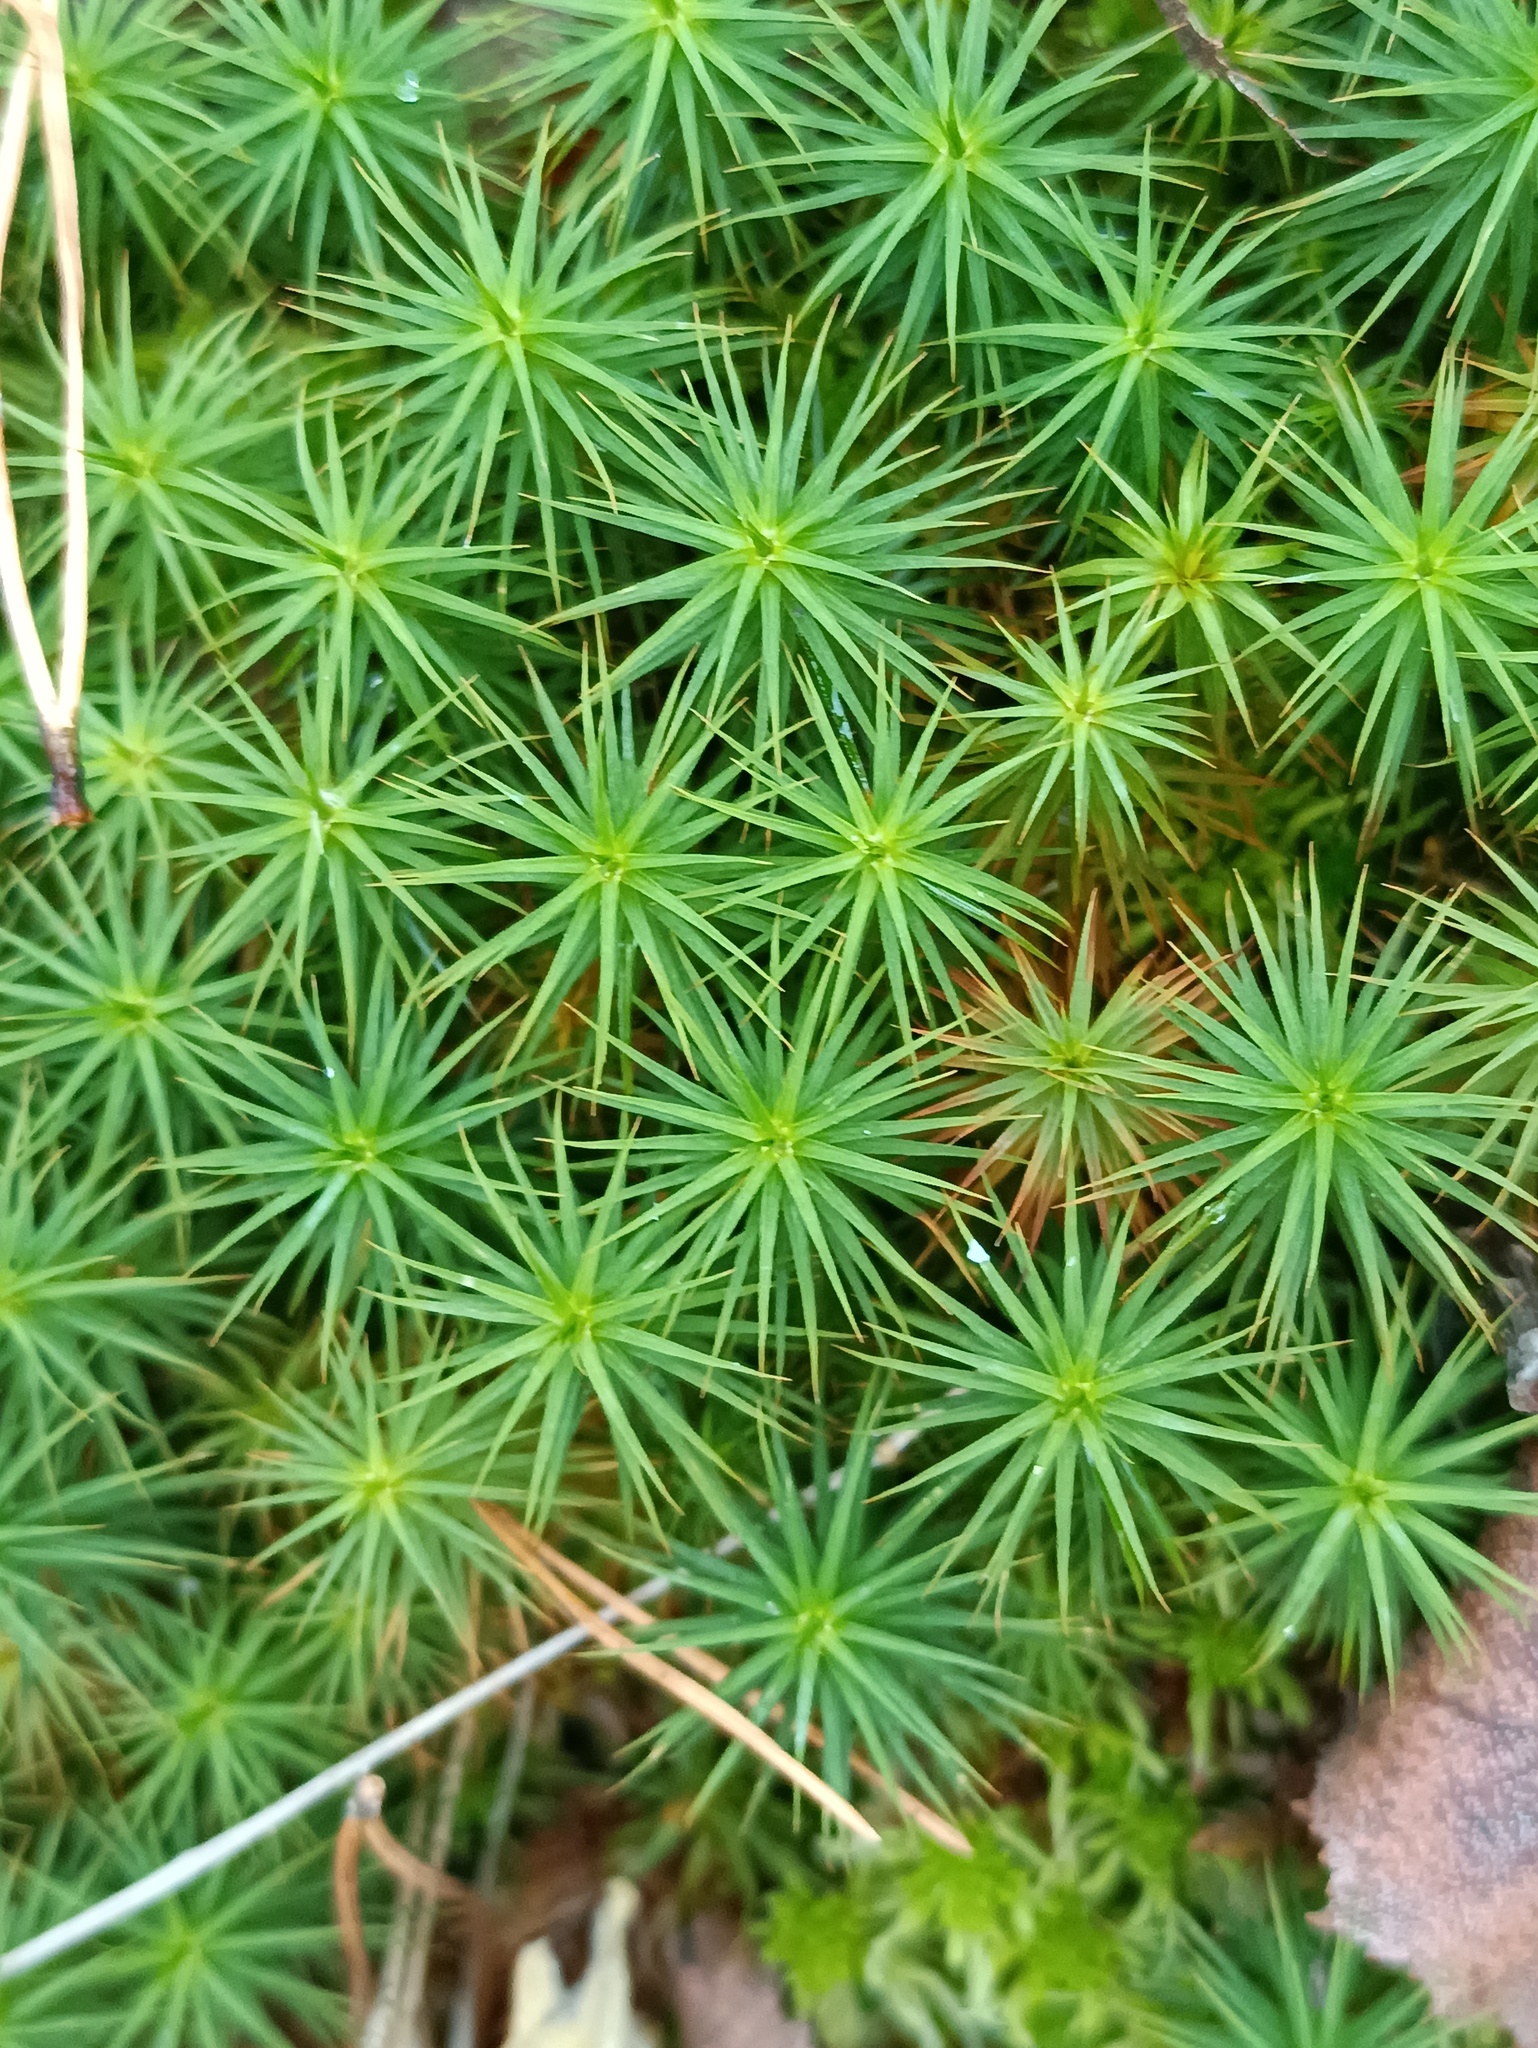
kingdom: Plantae
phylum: Bryophyta
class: Polytrichopsida
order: Polytrichales
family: Polytrichaceae
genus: Polytrichum
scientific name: Polytrichum commune
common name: Common haircap
